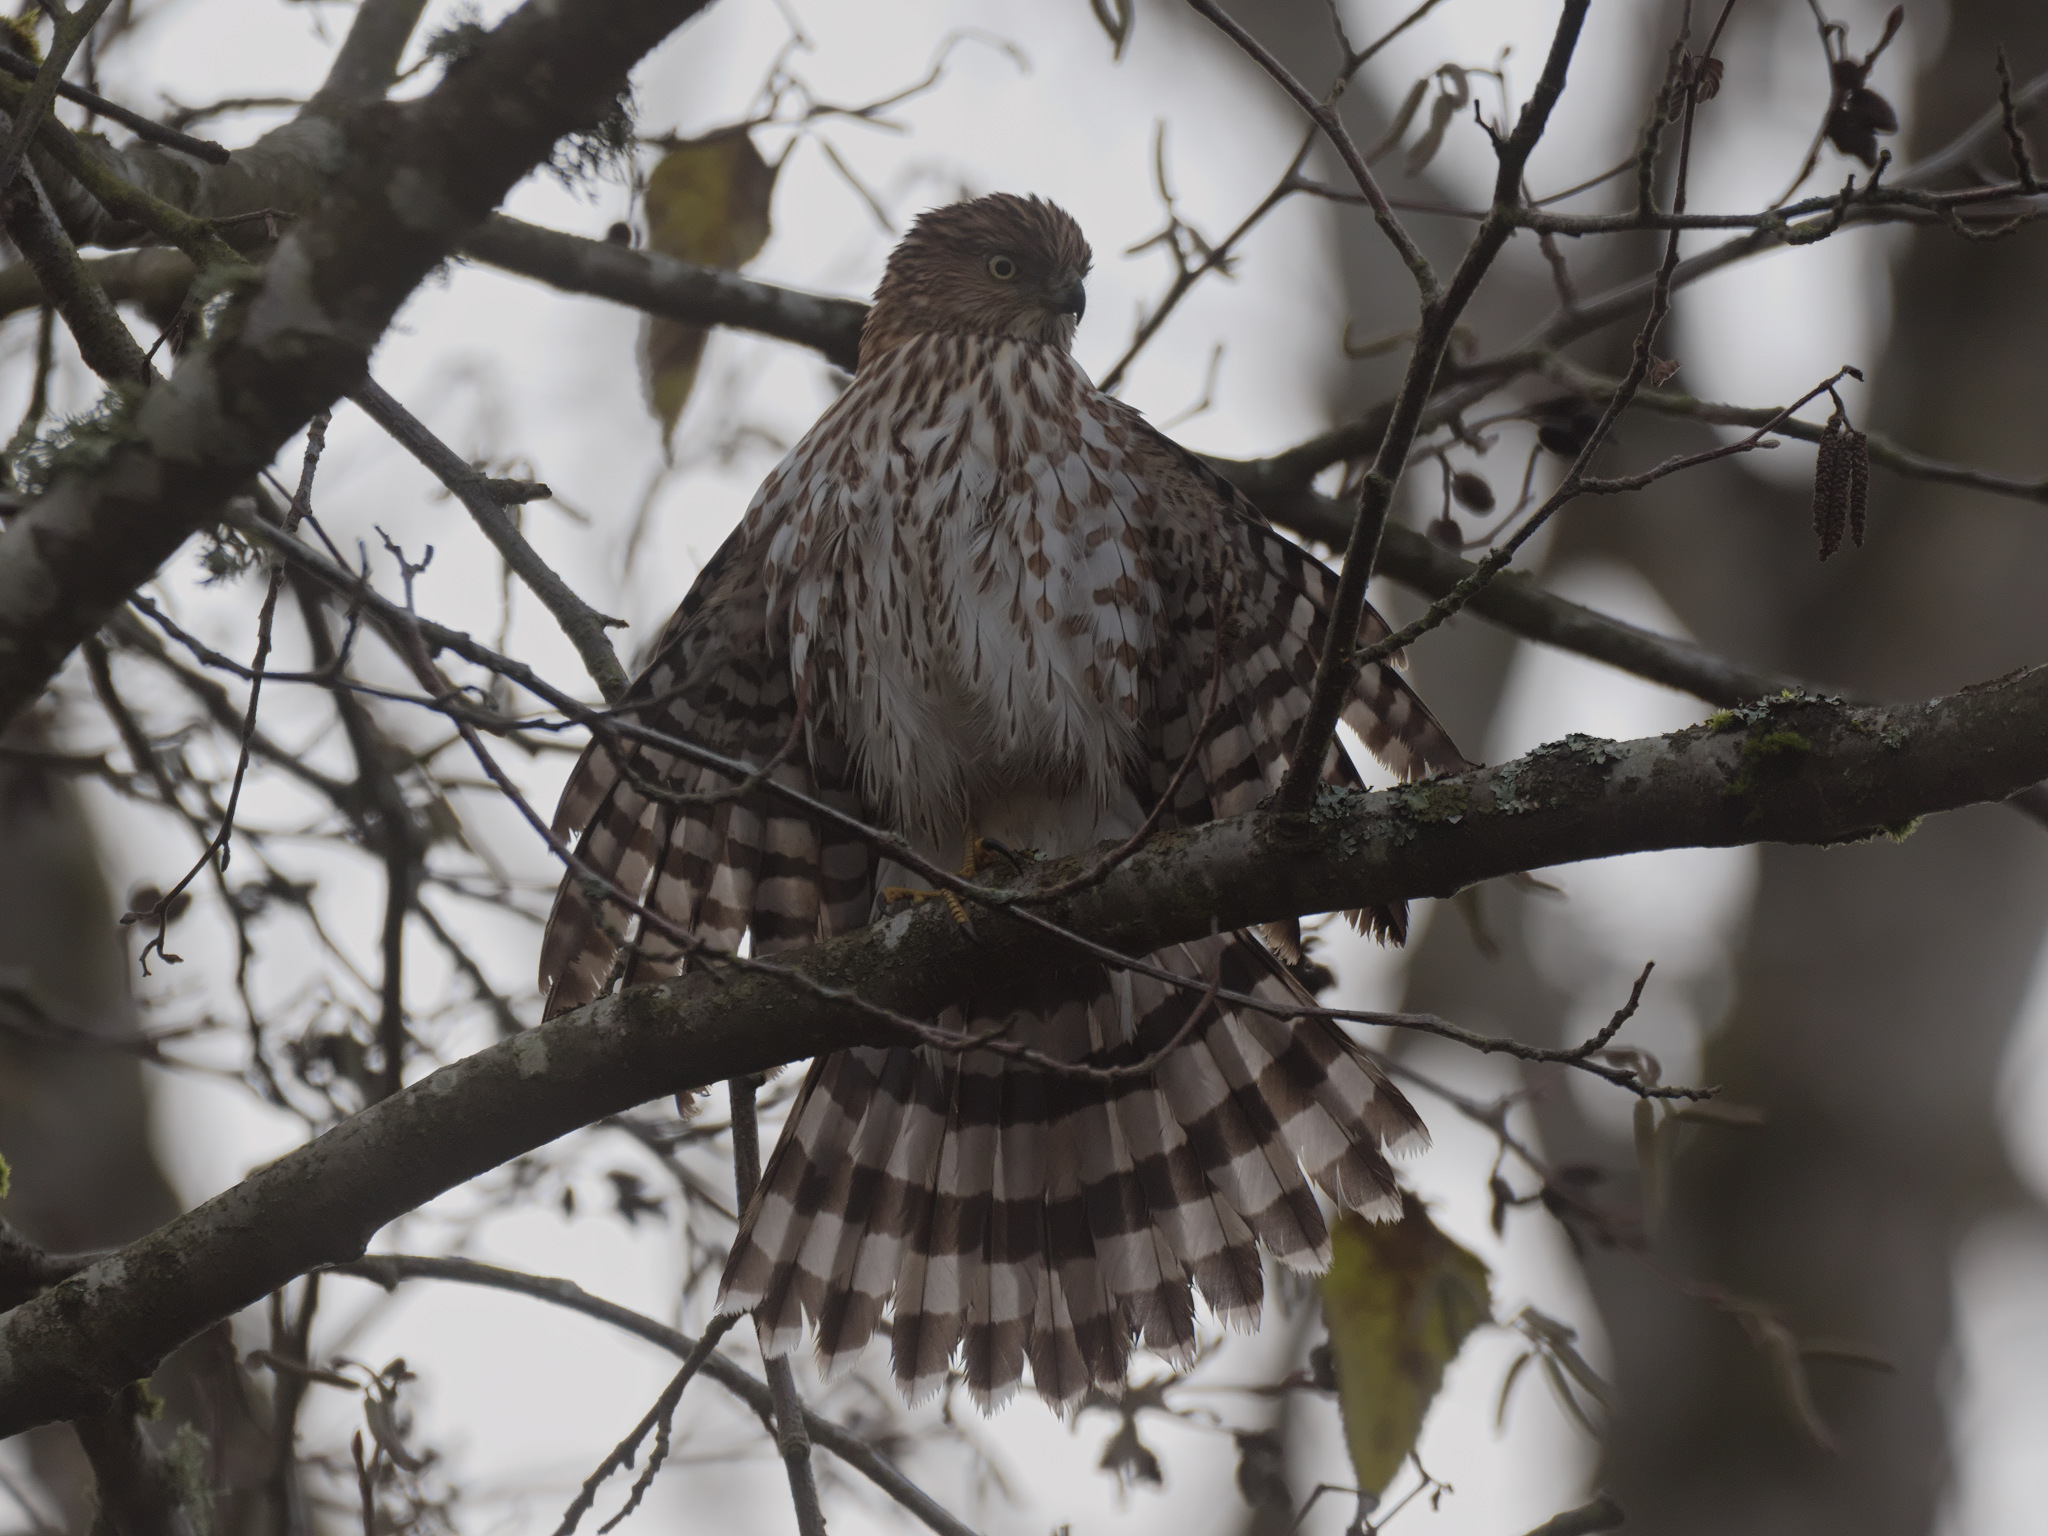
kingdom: Animalia
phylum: Chordata
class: Aves
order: Accipitriformes
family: Accipitridae
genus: Accipiter
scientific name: Accipiter cooperii
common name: Cooper's hawk
